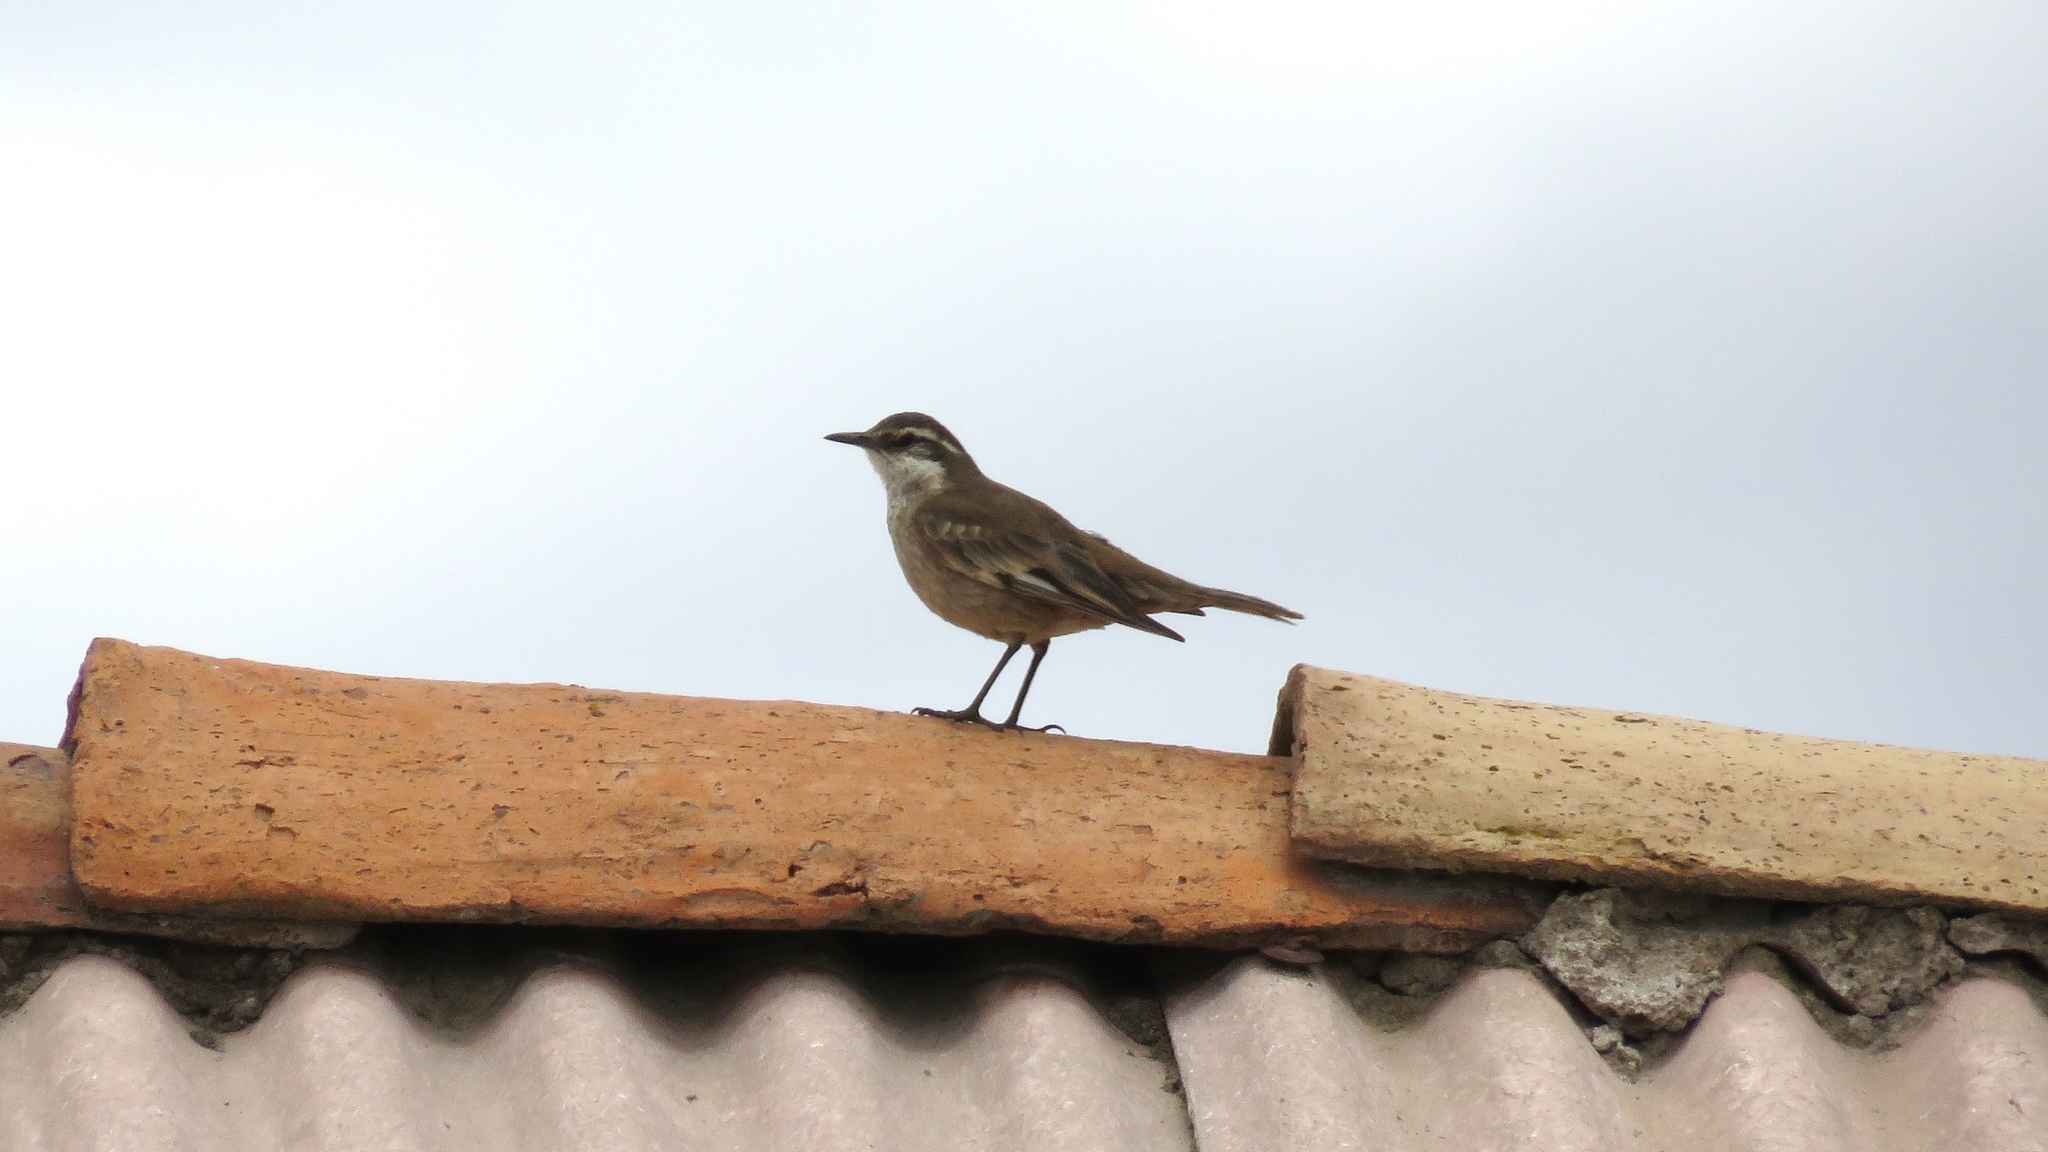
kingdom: Animalia
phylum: Chordata
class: Aves
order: Passeriformes
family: Furnariidae
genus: Cinclodes
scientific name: Cinclodes fuscus
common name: Buff-winged cinclodes
